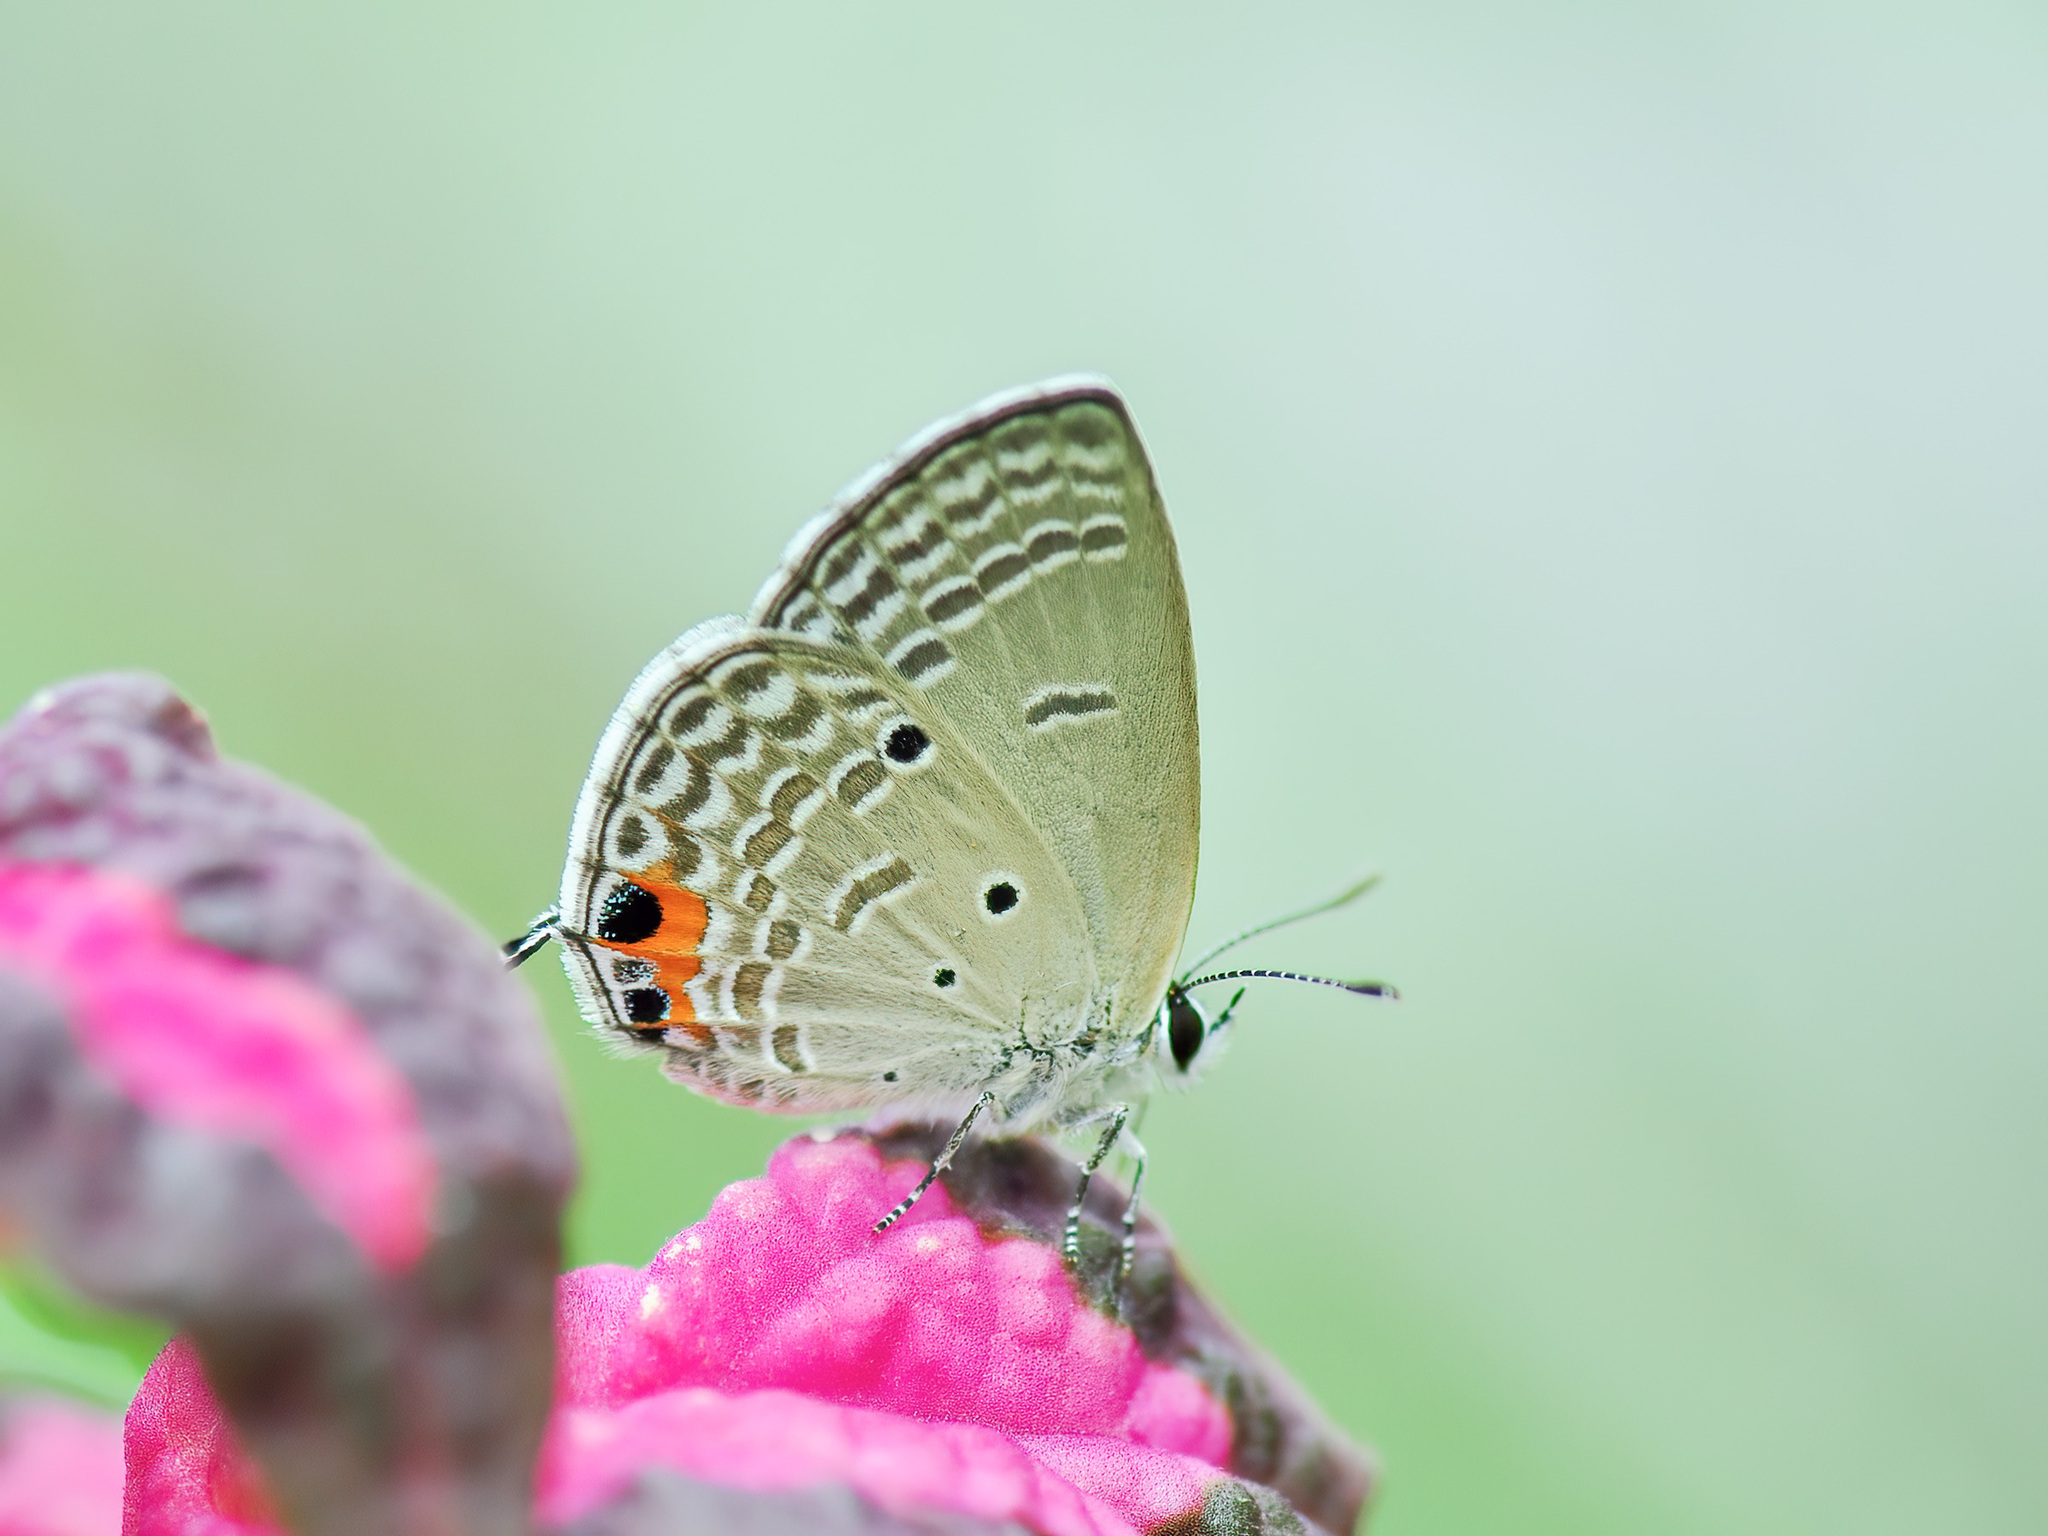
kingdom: Animalia
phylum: Arthropoda
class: Insecta
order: Lepidoptera
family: Lycaenidae
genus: Luthrodes
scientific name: Luthrodes pandava
